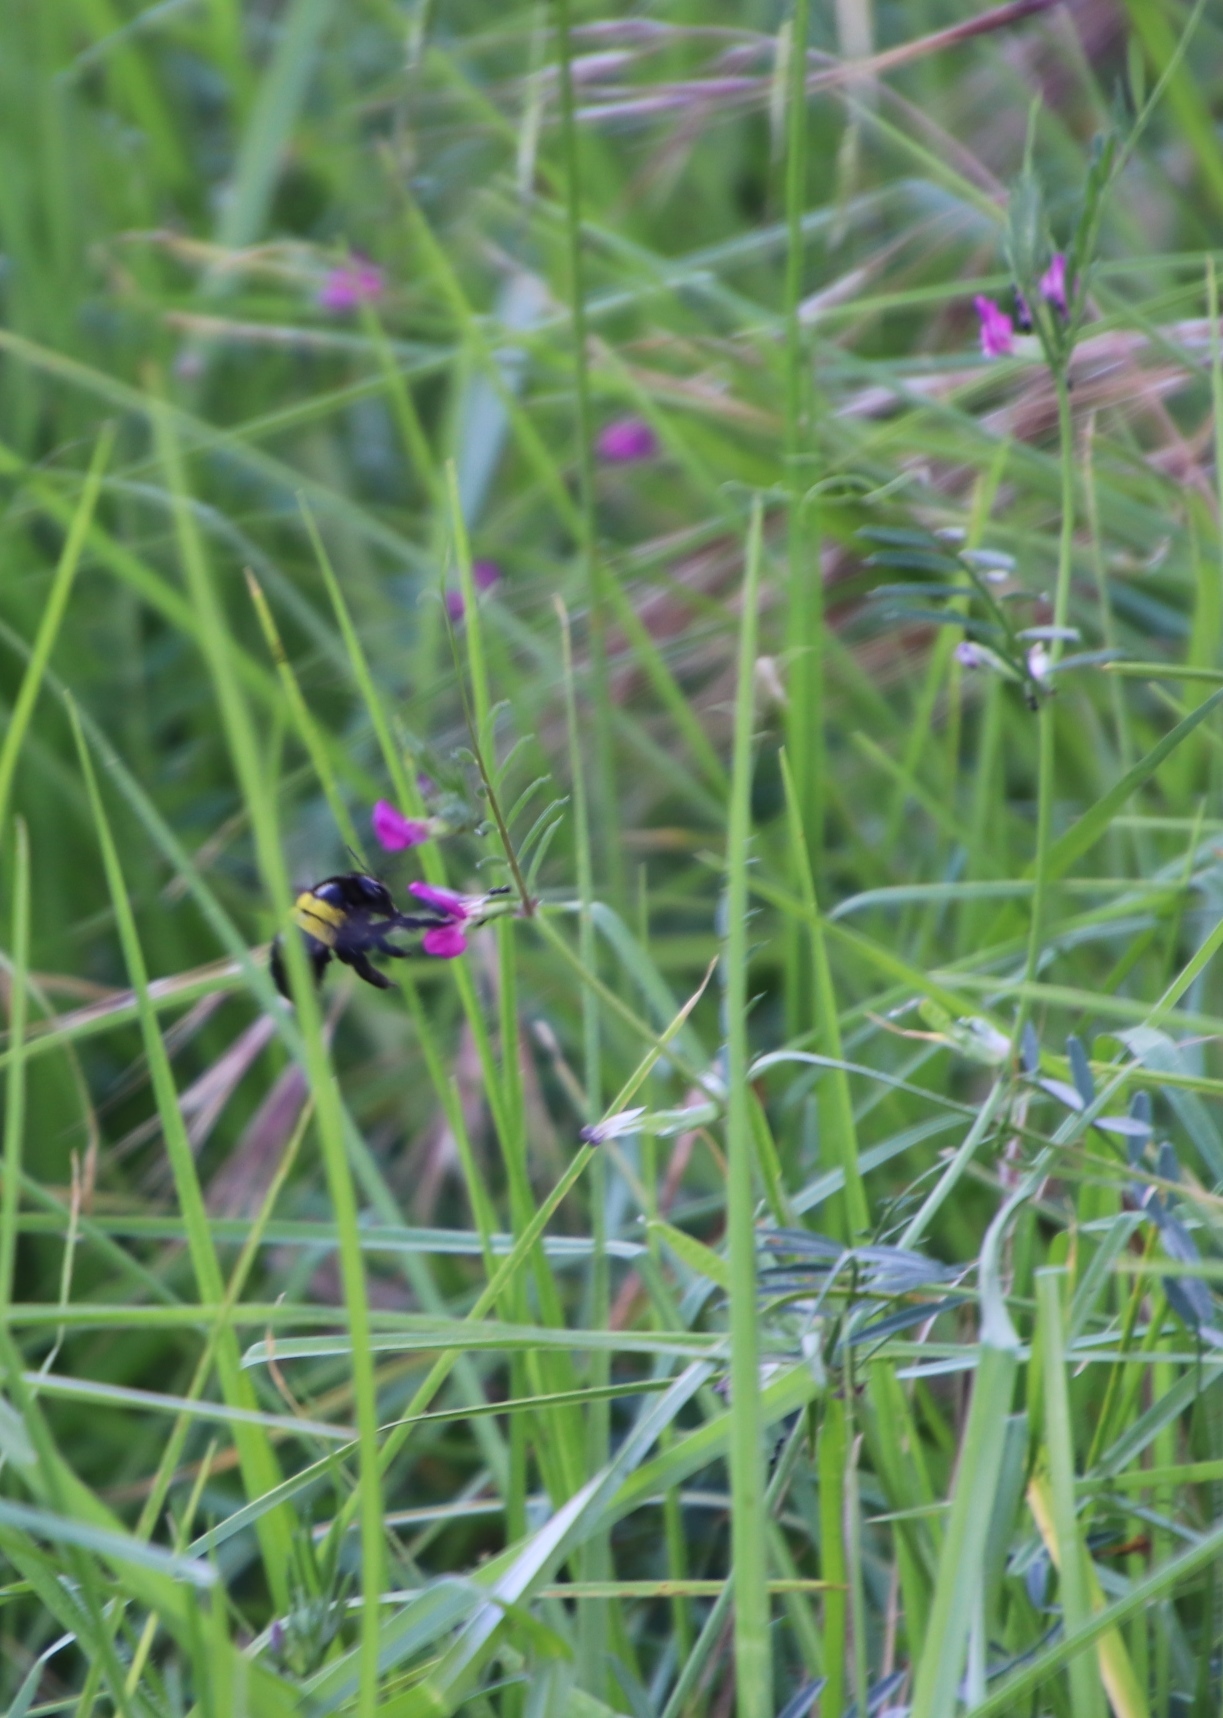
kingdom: Plantae
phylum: Tracheophyta
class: Magnoliopsida
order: Fabales
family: Fabaceae
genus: Vicia
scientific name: Vicia sativa
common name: Garden vetch
